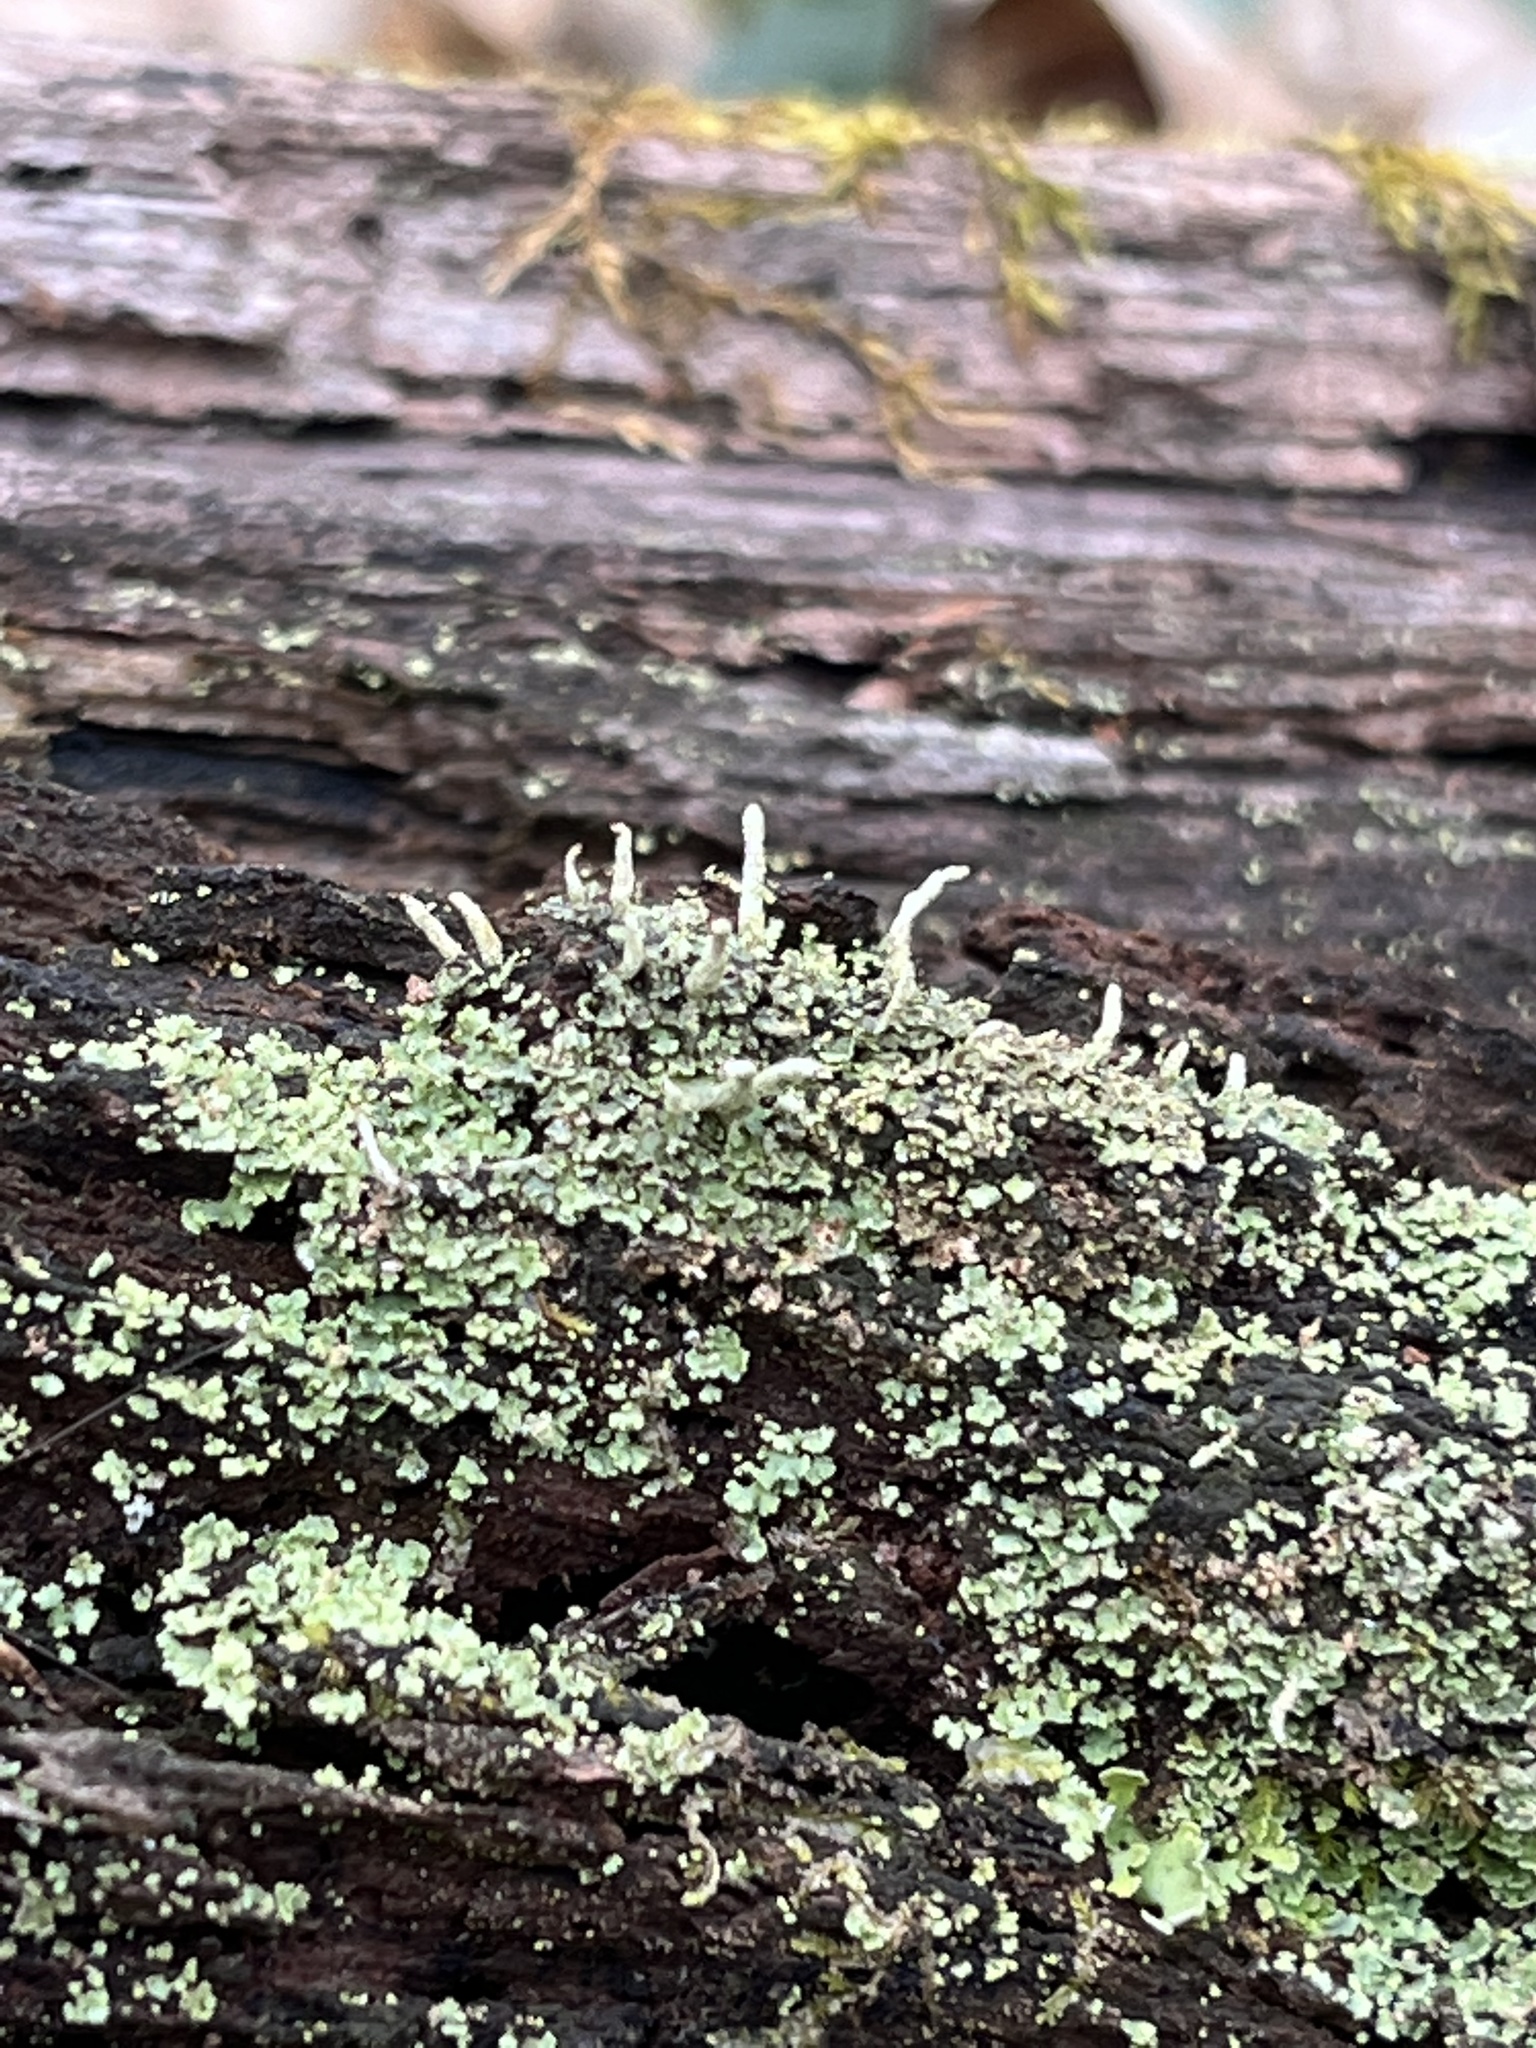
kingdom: Fungi
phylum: Ascomycota
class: Lecanoromycetes
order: Lecanorales
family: Cladoniaceae
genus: Cladonia
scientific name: Cladonia coniocraea
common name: Common powderhorn
